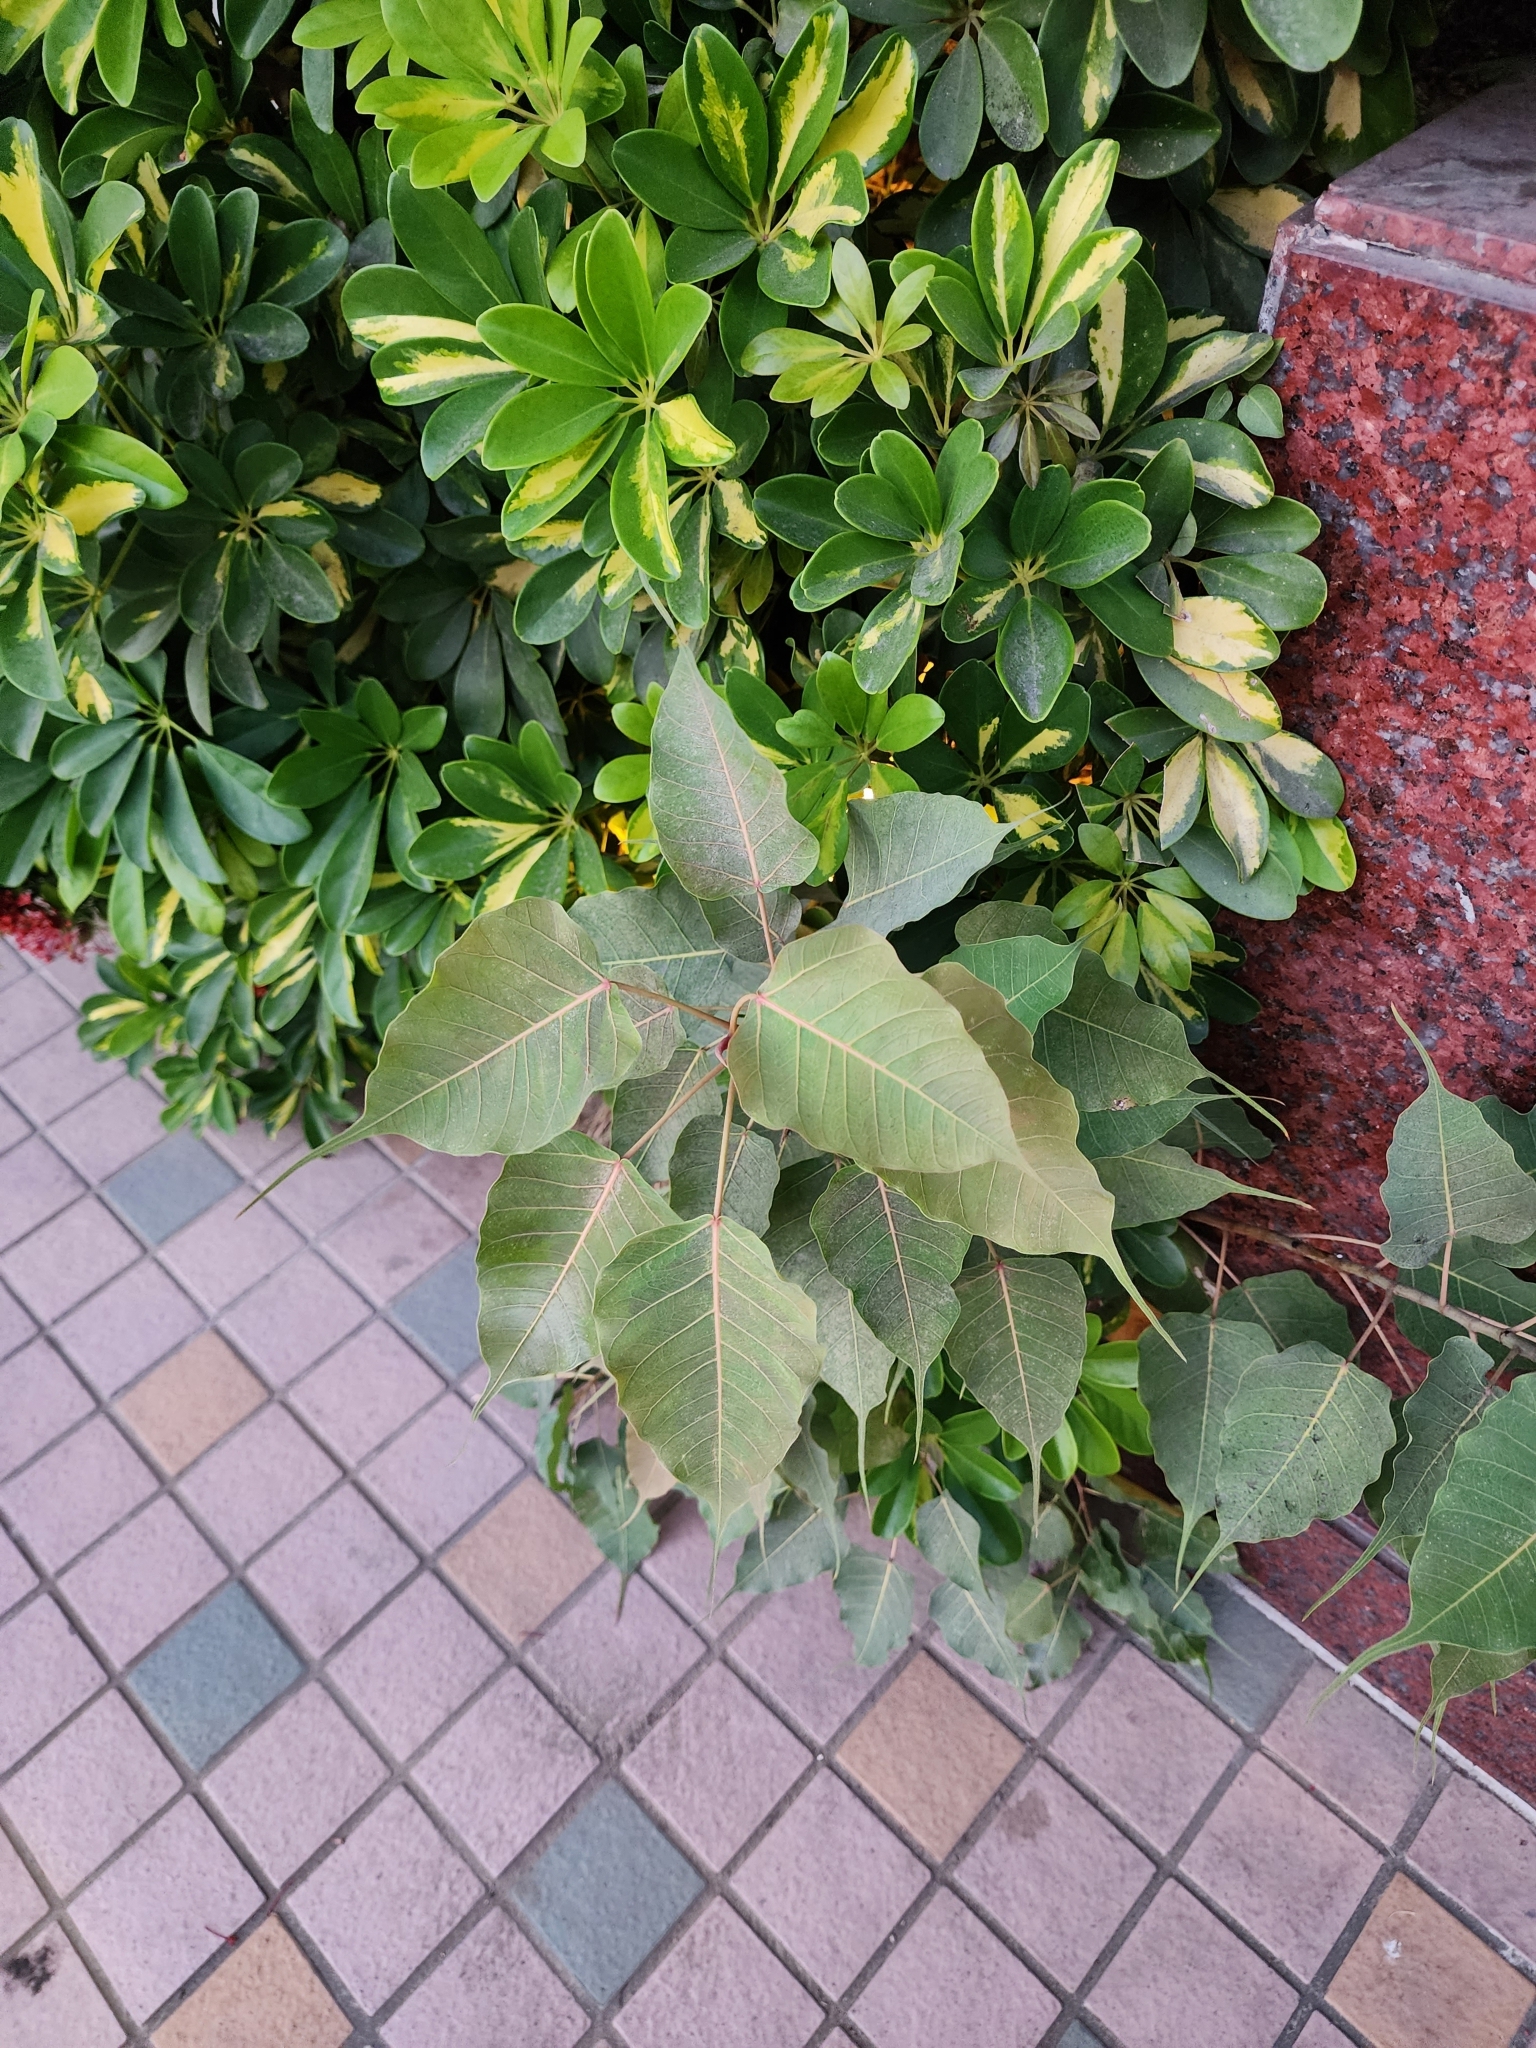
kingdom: Plantae
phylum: Tracheophyta
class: Magnoliopsida
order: Rosales
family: Moraceae
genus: Ficus
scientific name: Ficus religiosa
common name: Bodhi tree
